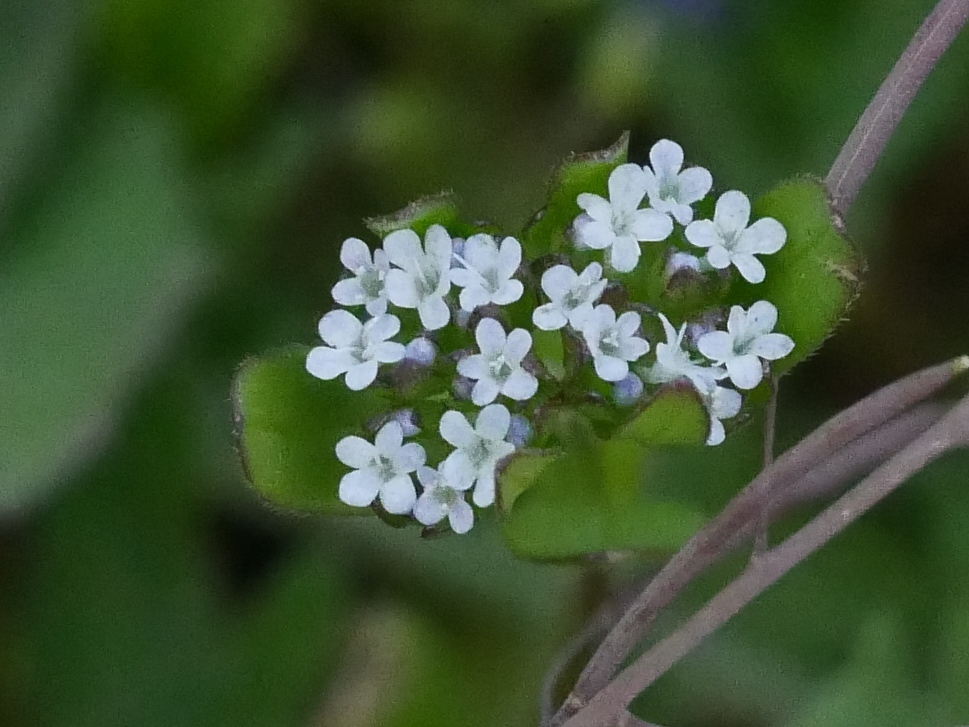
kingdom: Plantae
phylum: Tracheophyta
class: Magnoliopsida
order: Dipsacales
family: Caprifoliaceae
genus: Valerianella
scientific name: Valerianella locusta
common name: Common cornsalad
